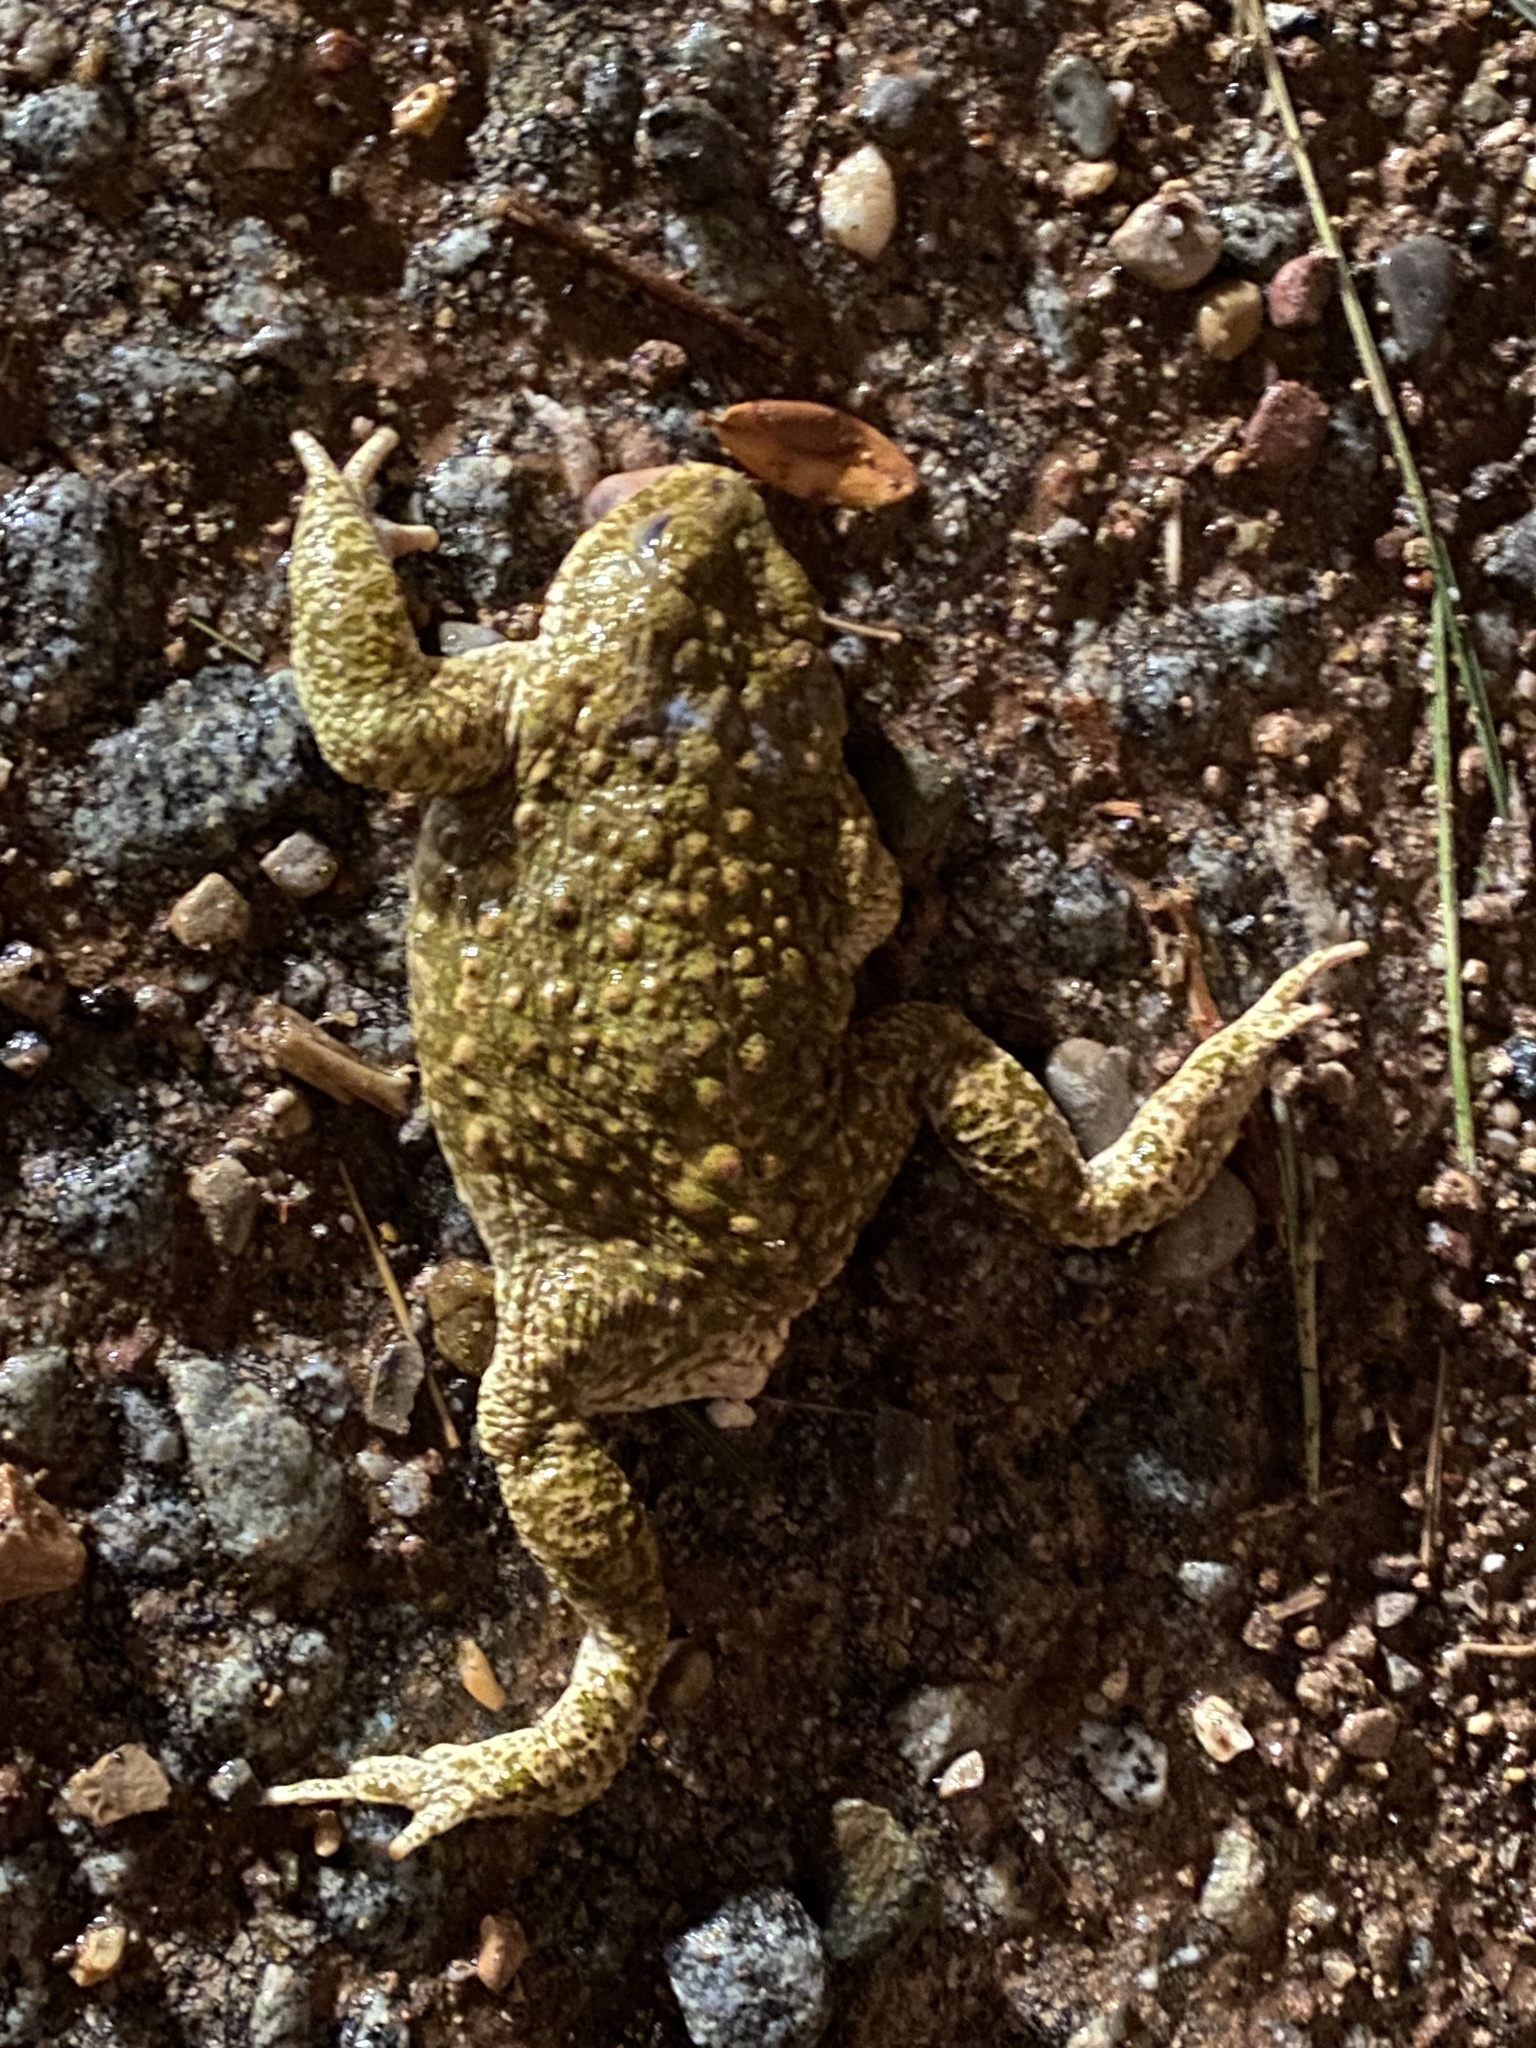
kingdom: Animalia
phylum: Chordata
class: Amphibia
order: Anura
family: Bufonidae
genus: Epidalea
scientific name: Epidalea calamita
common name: Natterjack toad
